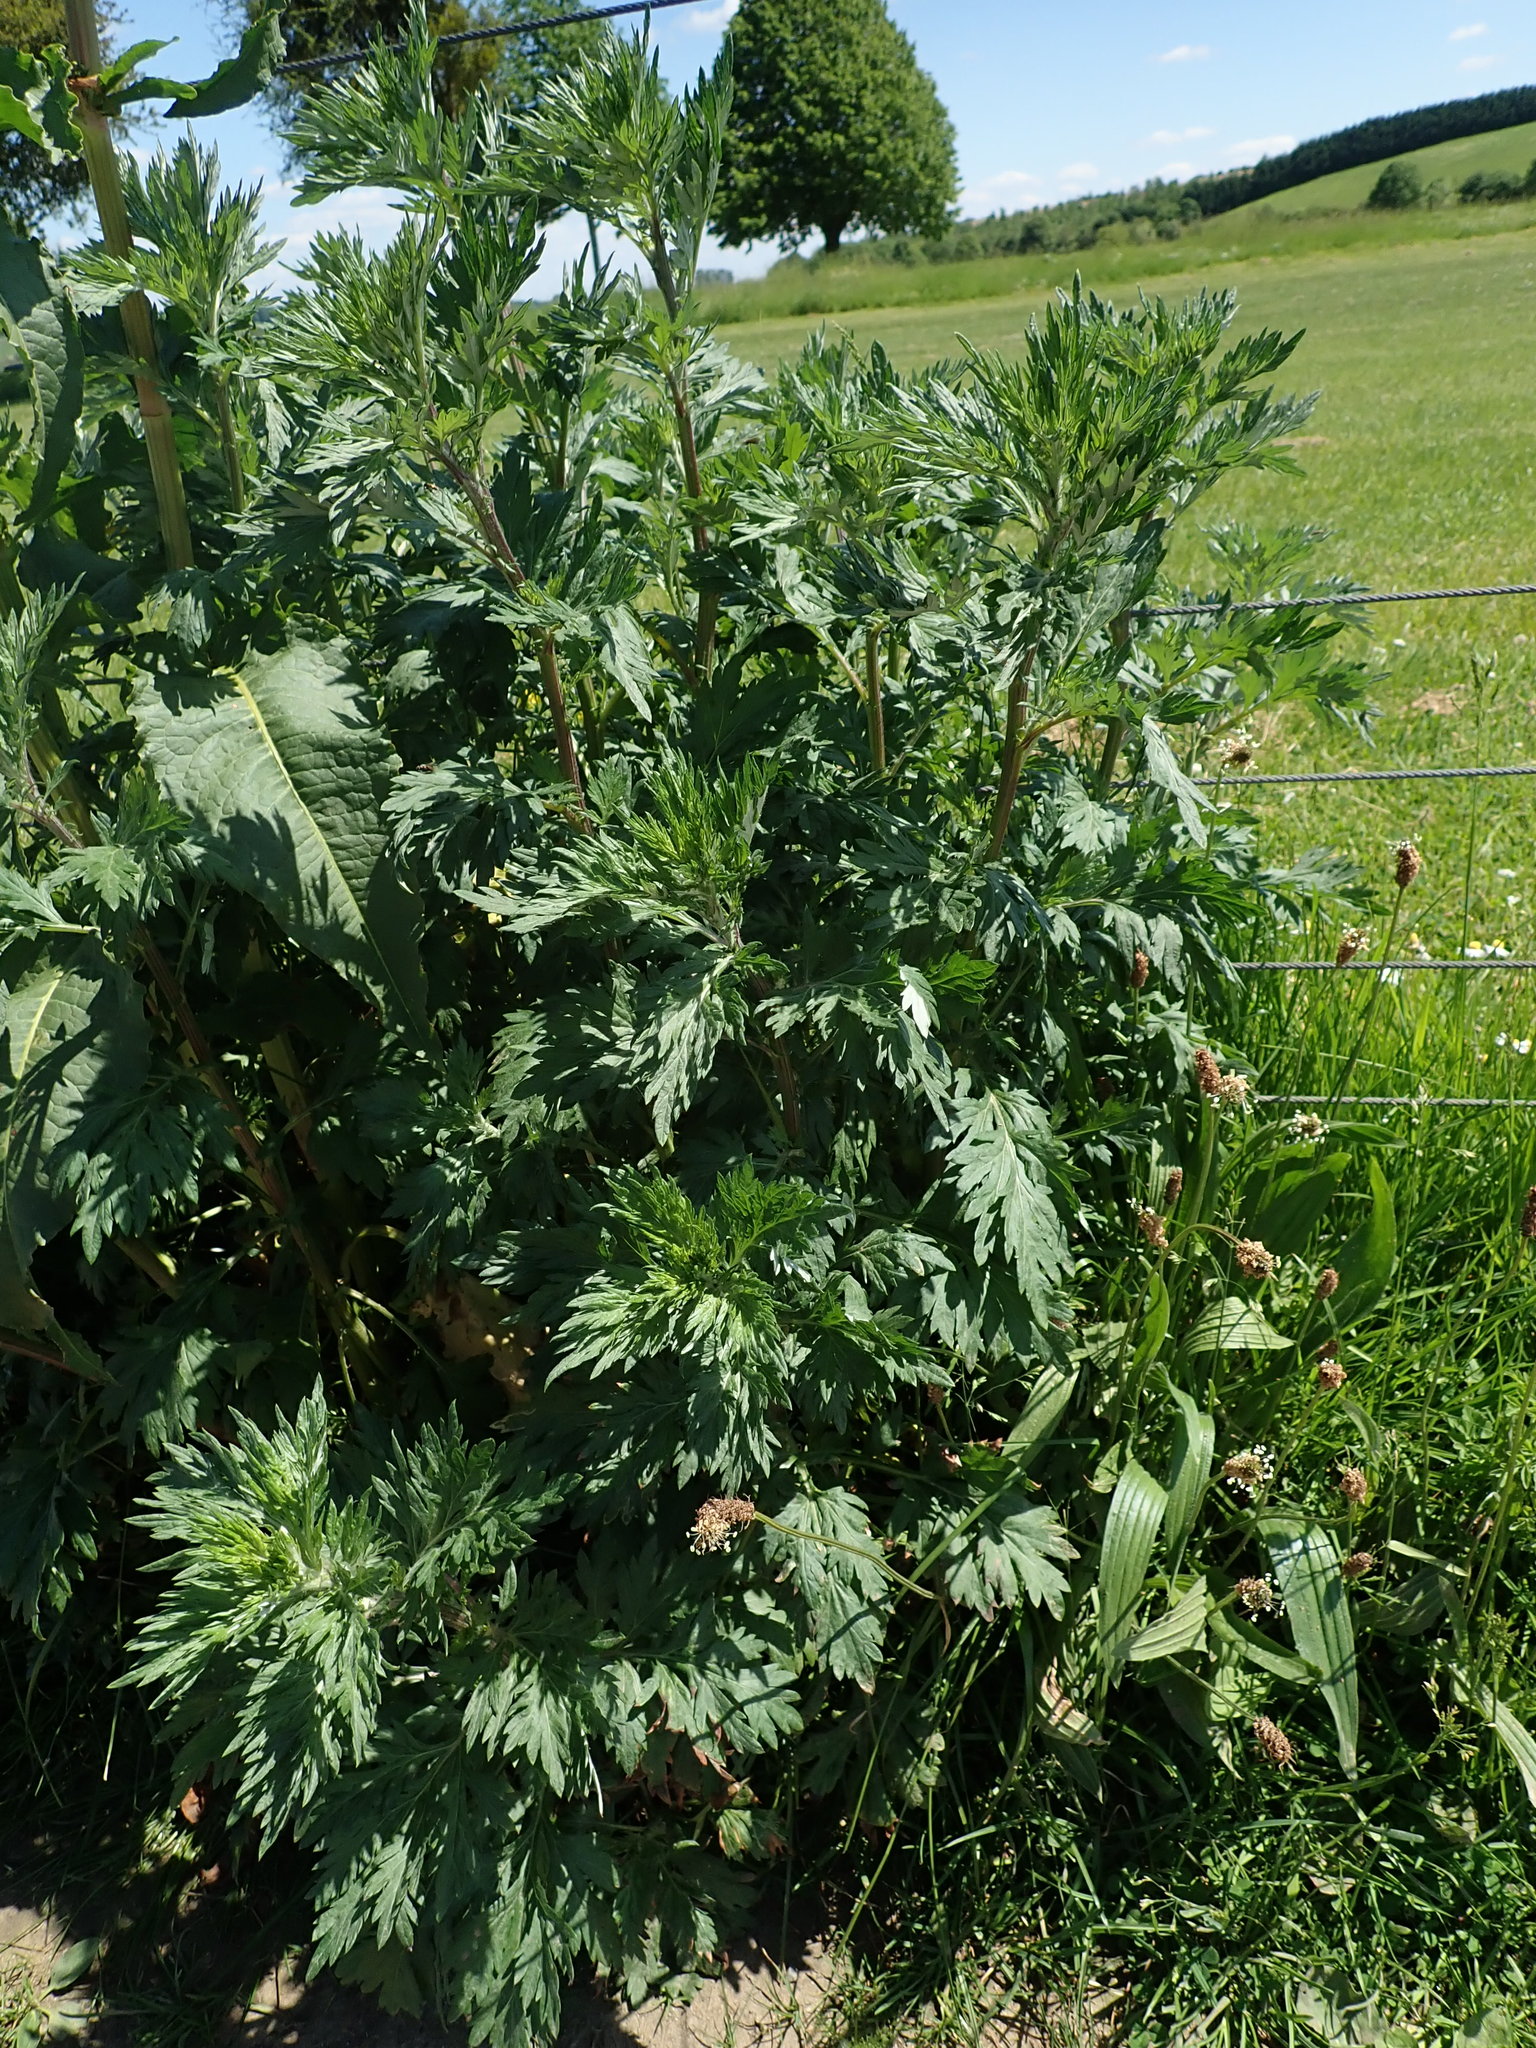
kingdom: Plantae
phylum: Tracheophyta
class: Magnoliopsida
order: Asterales
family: Asteraceae
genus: Artemisia
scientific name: Artemisia vulgaris
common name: Mugwort
